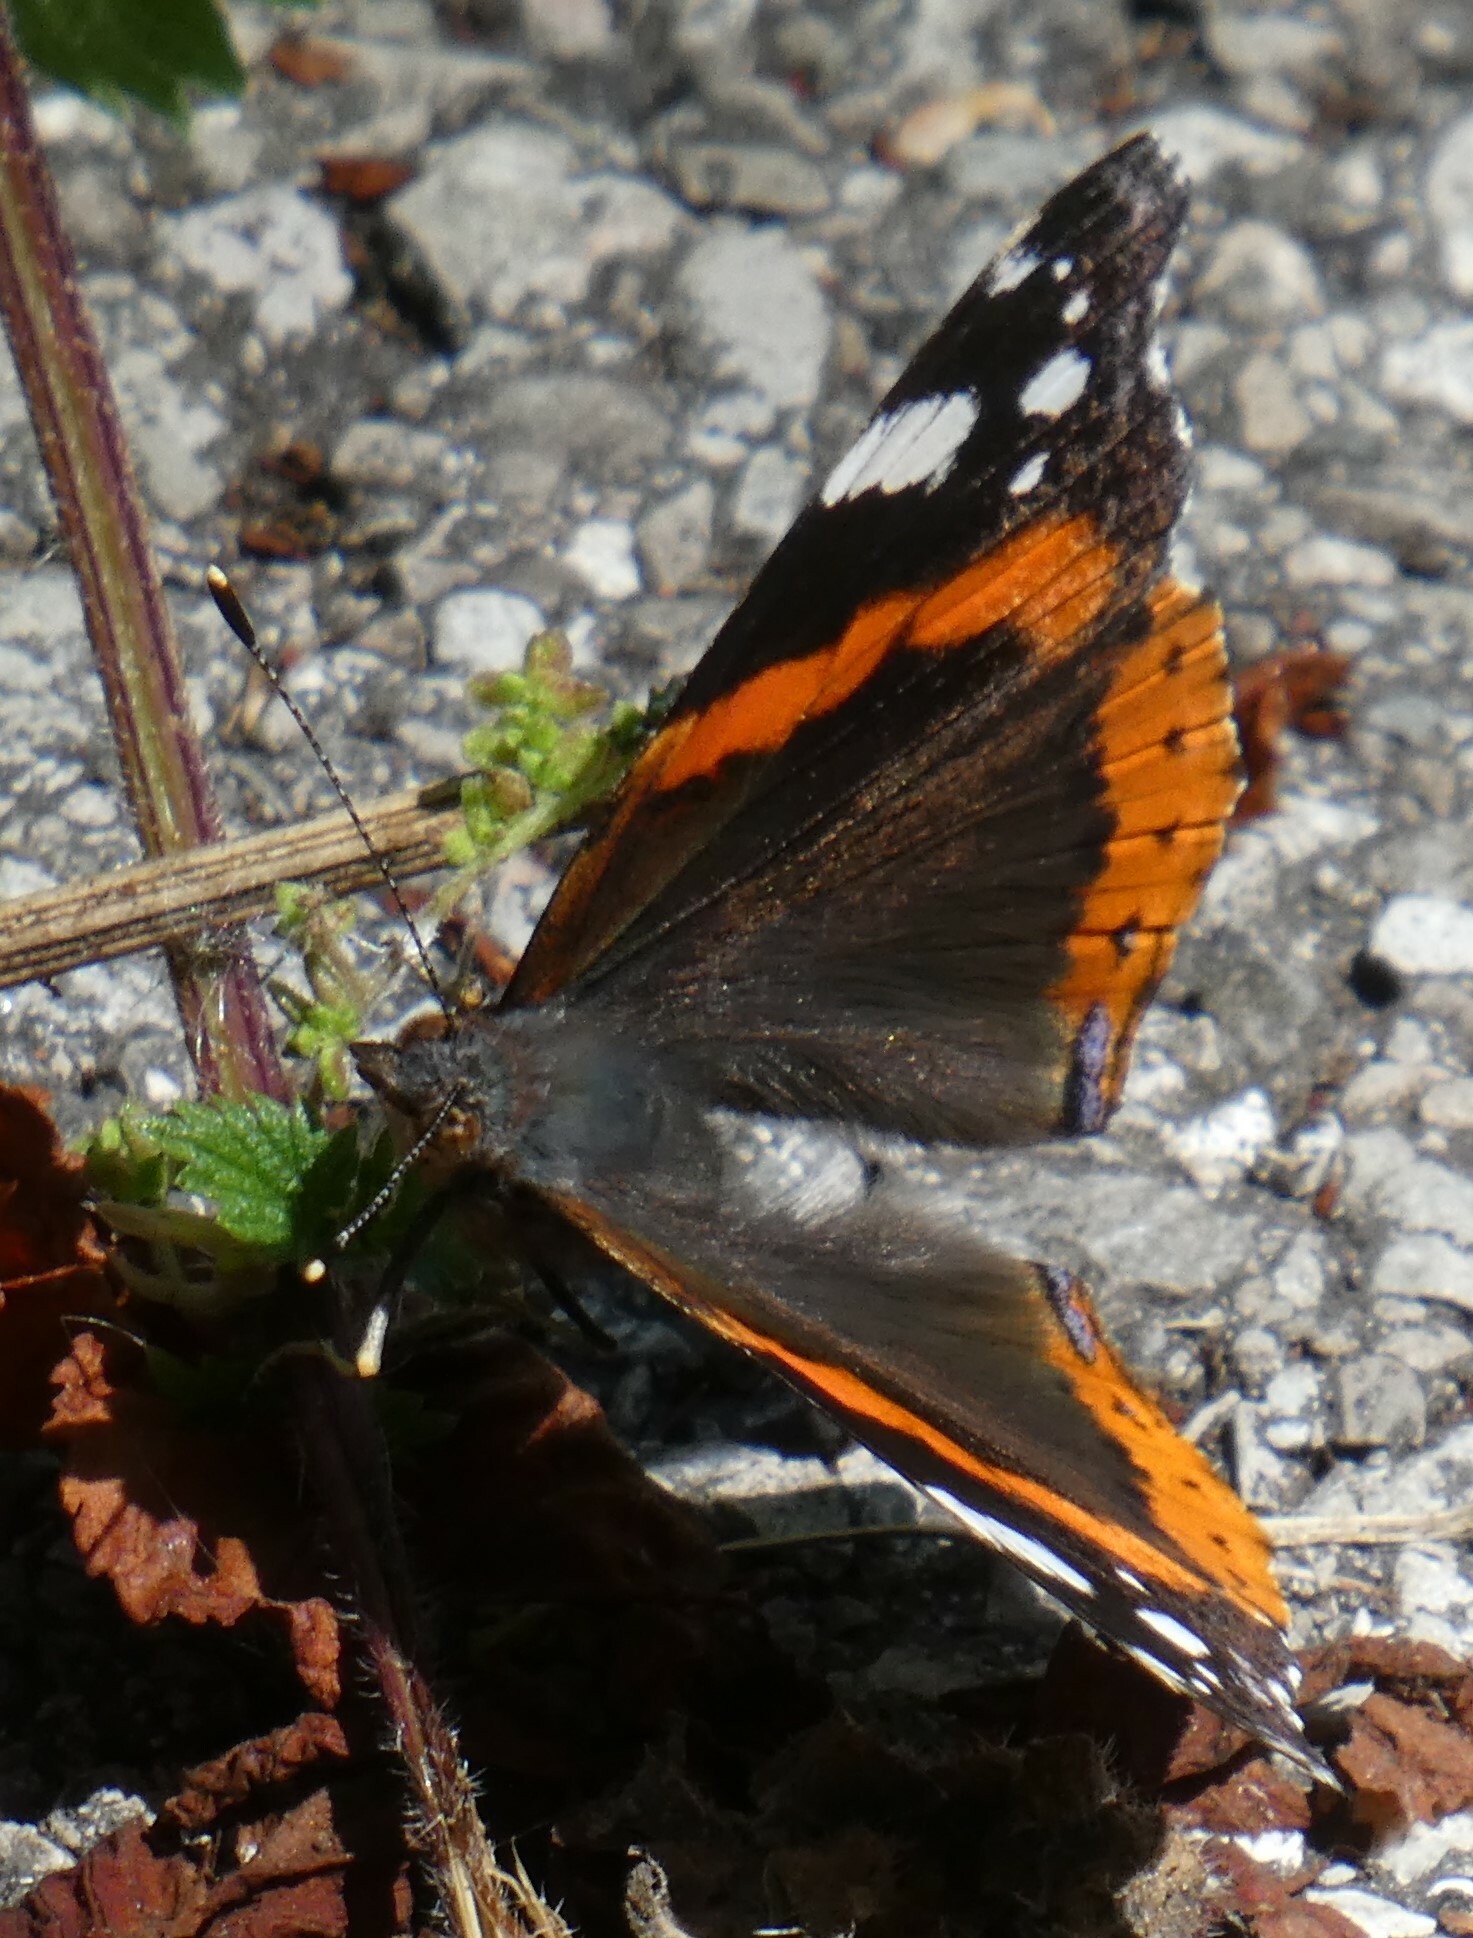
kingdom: Animalia
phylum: Arthropoda
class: Insecta
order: Lepidoptera
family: Nymphalidae
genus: Vanessa
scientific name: Vanessa atalanta
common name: Red admiral
